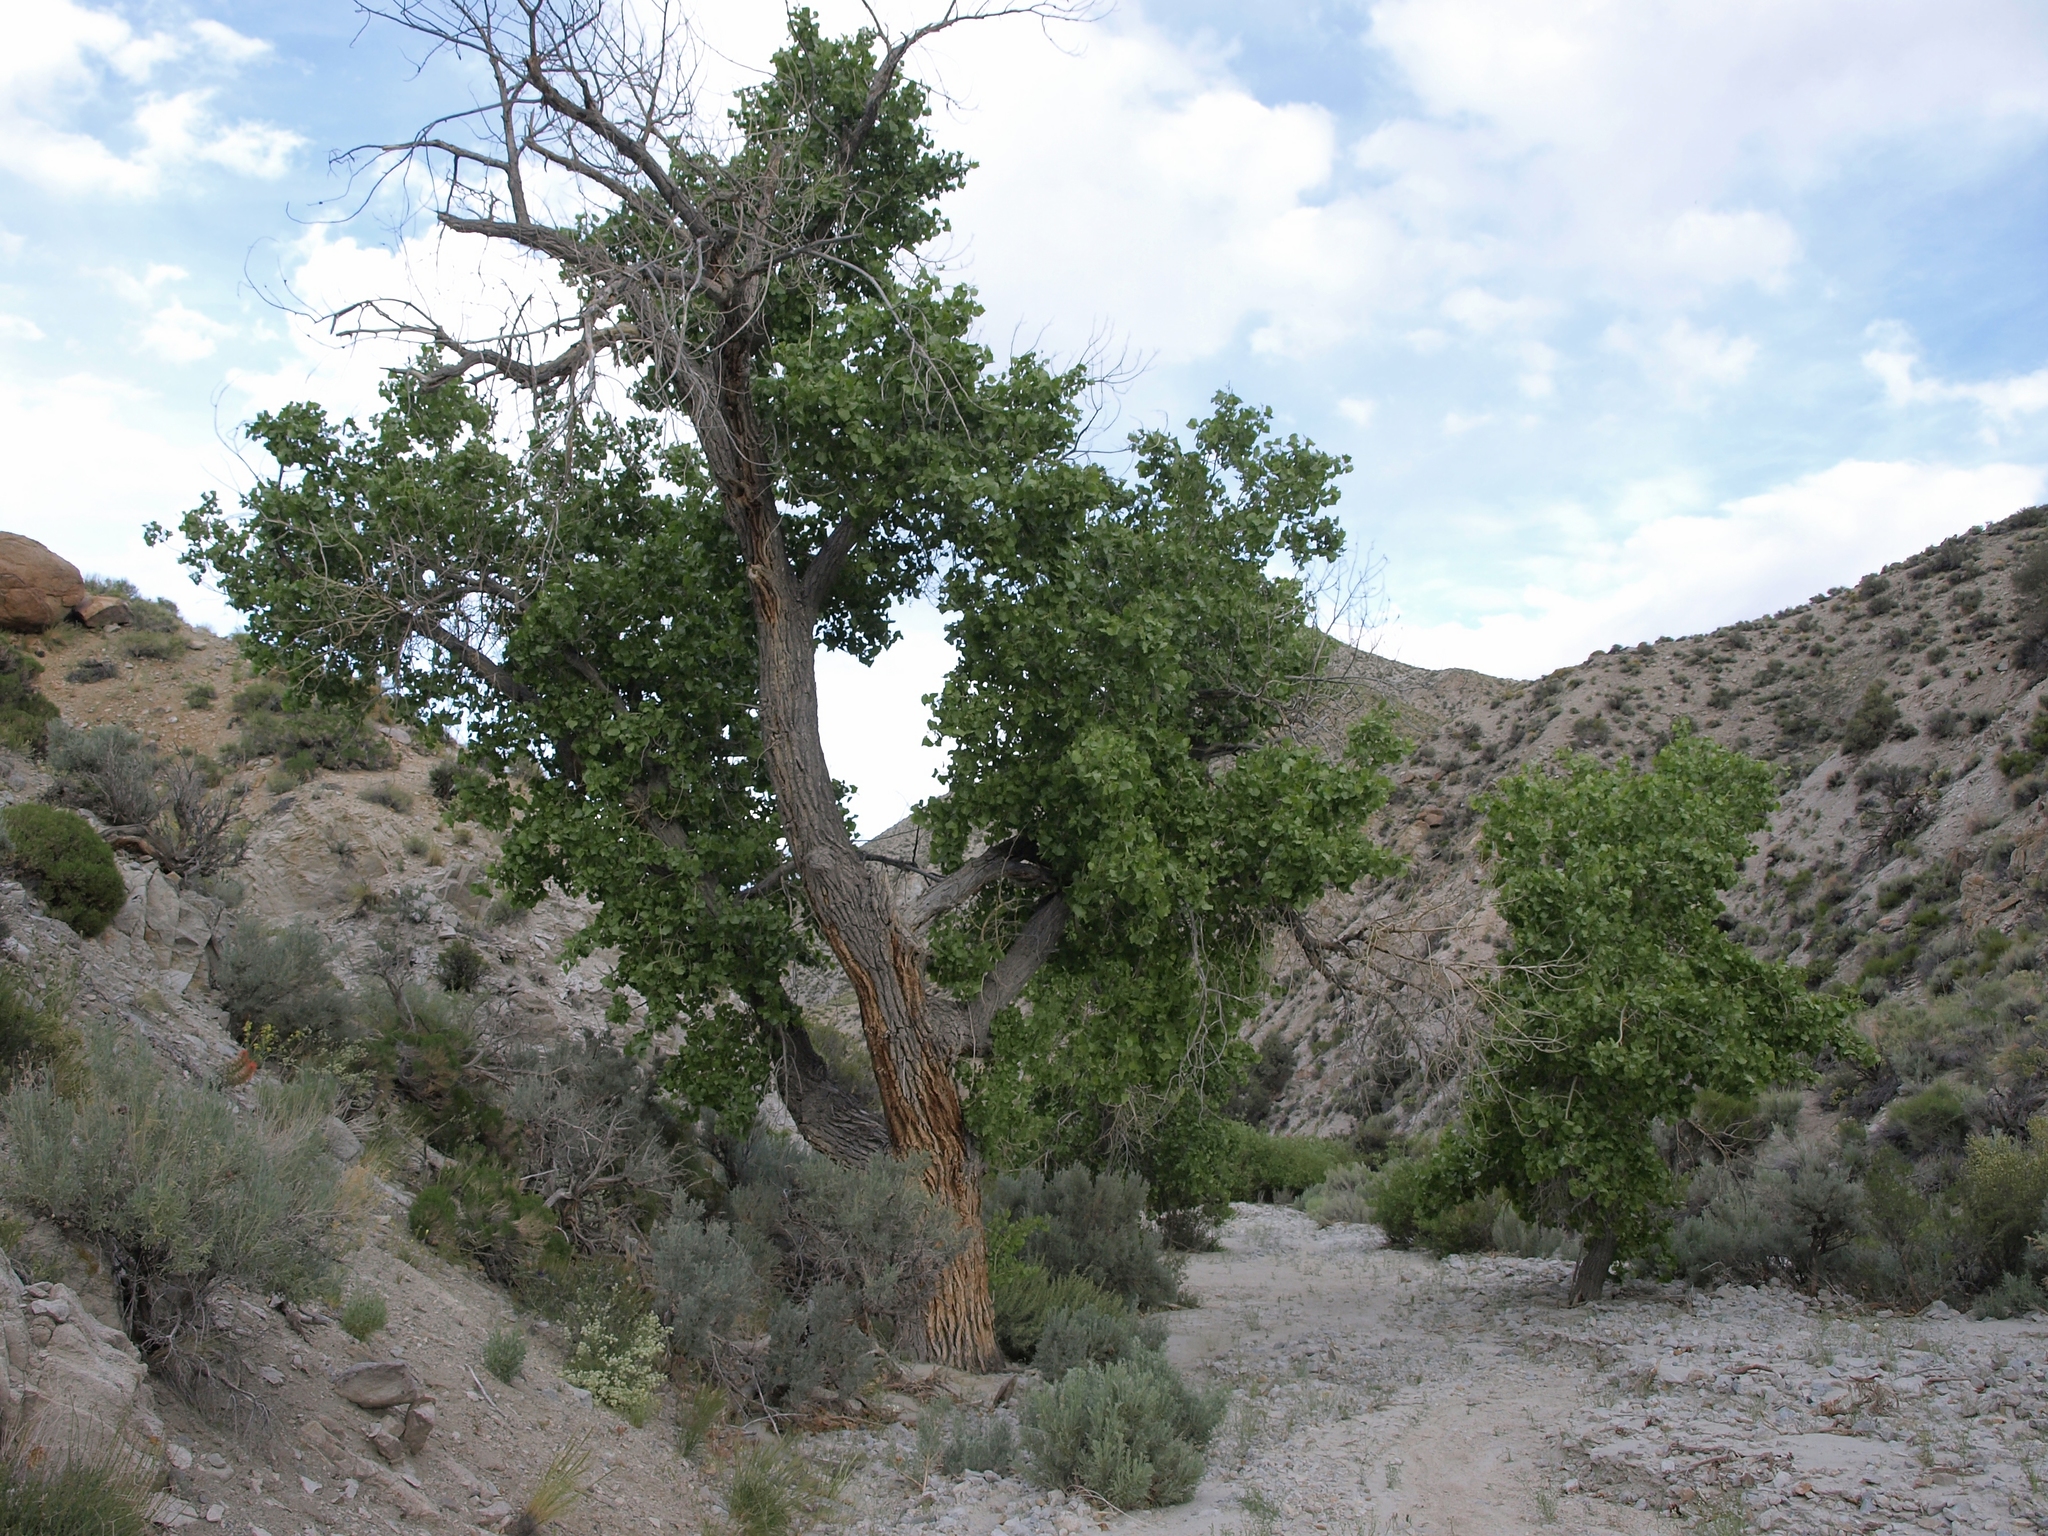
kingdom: Plantae
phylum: Tracheophyta
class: Magnoliopsida
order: Malpighiales
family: Salicaceae
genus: Populus
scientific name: Populus fremontii
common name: Fremont's cottonwood
